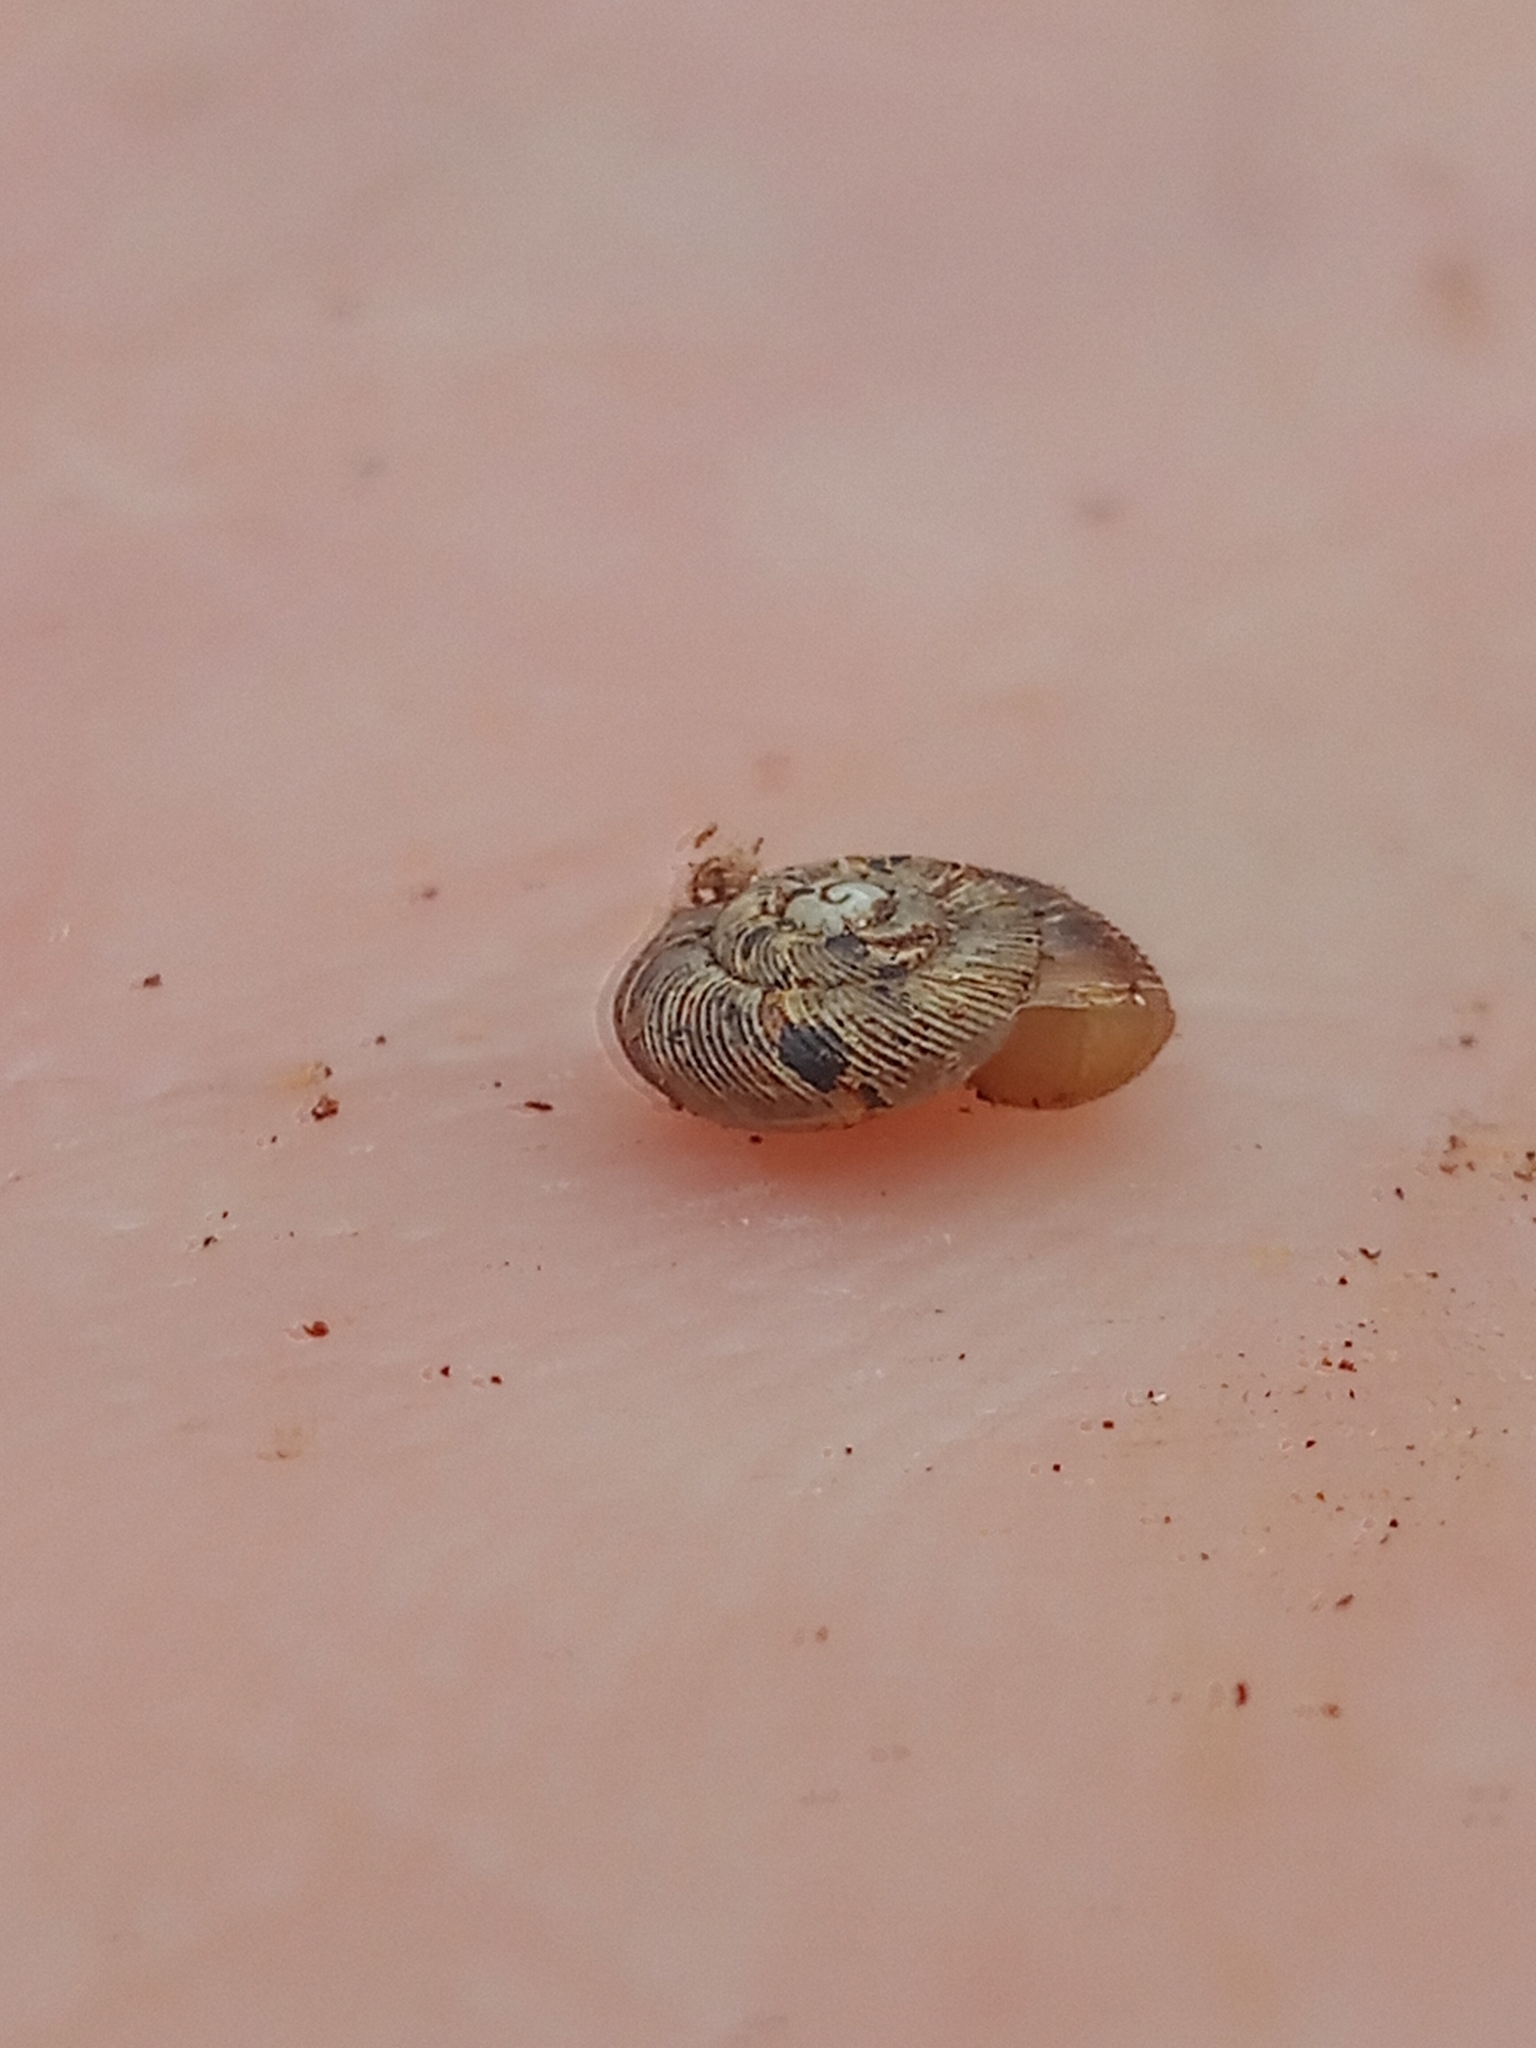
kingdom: Animalia
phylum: Mollusca
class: Gastropoda
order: Stylommatophora
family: Discidae
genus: Discus
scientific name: Discus ruderatus
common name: Brown disc snail
